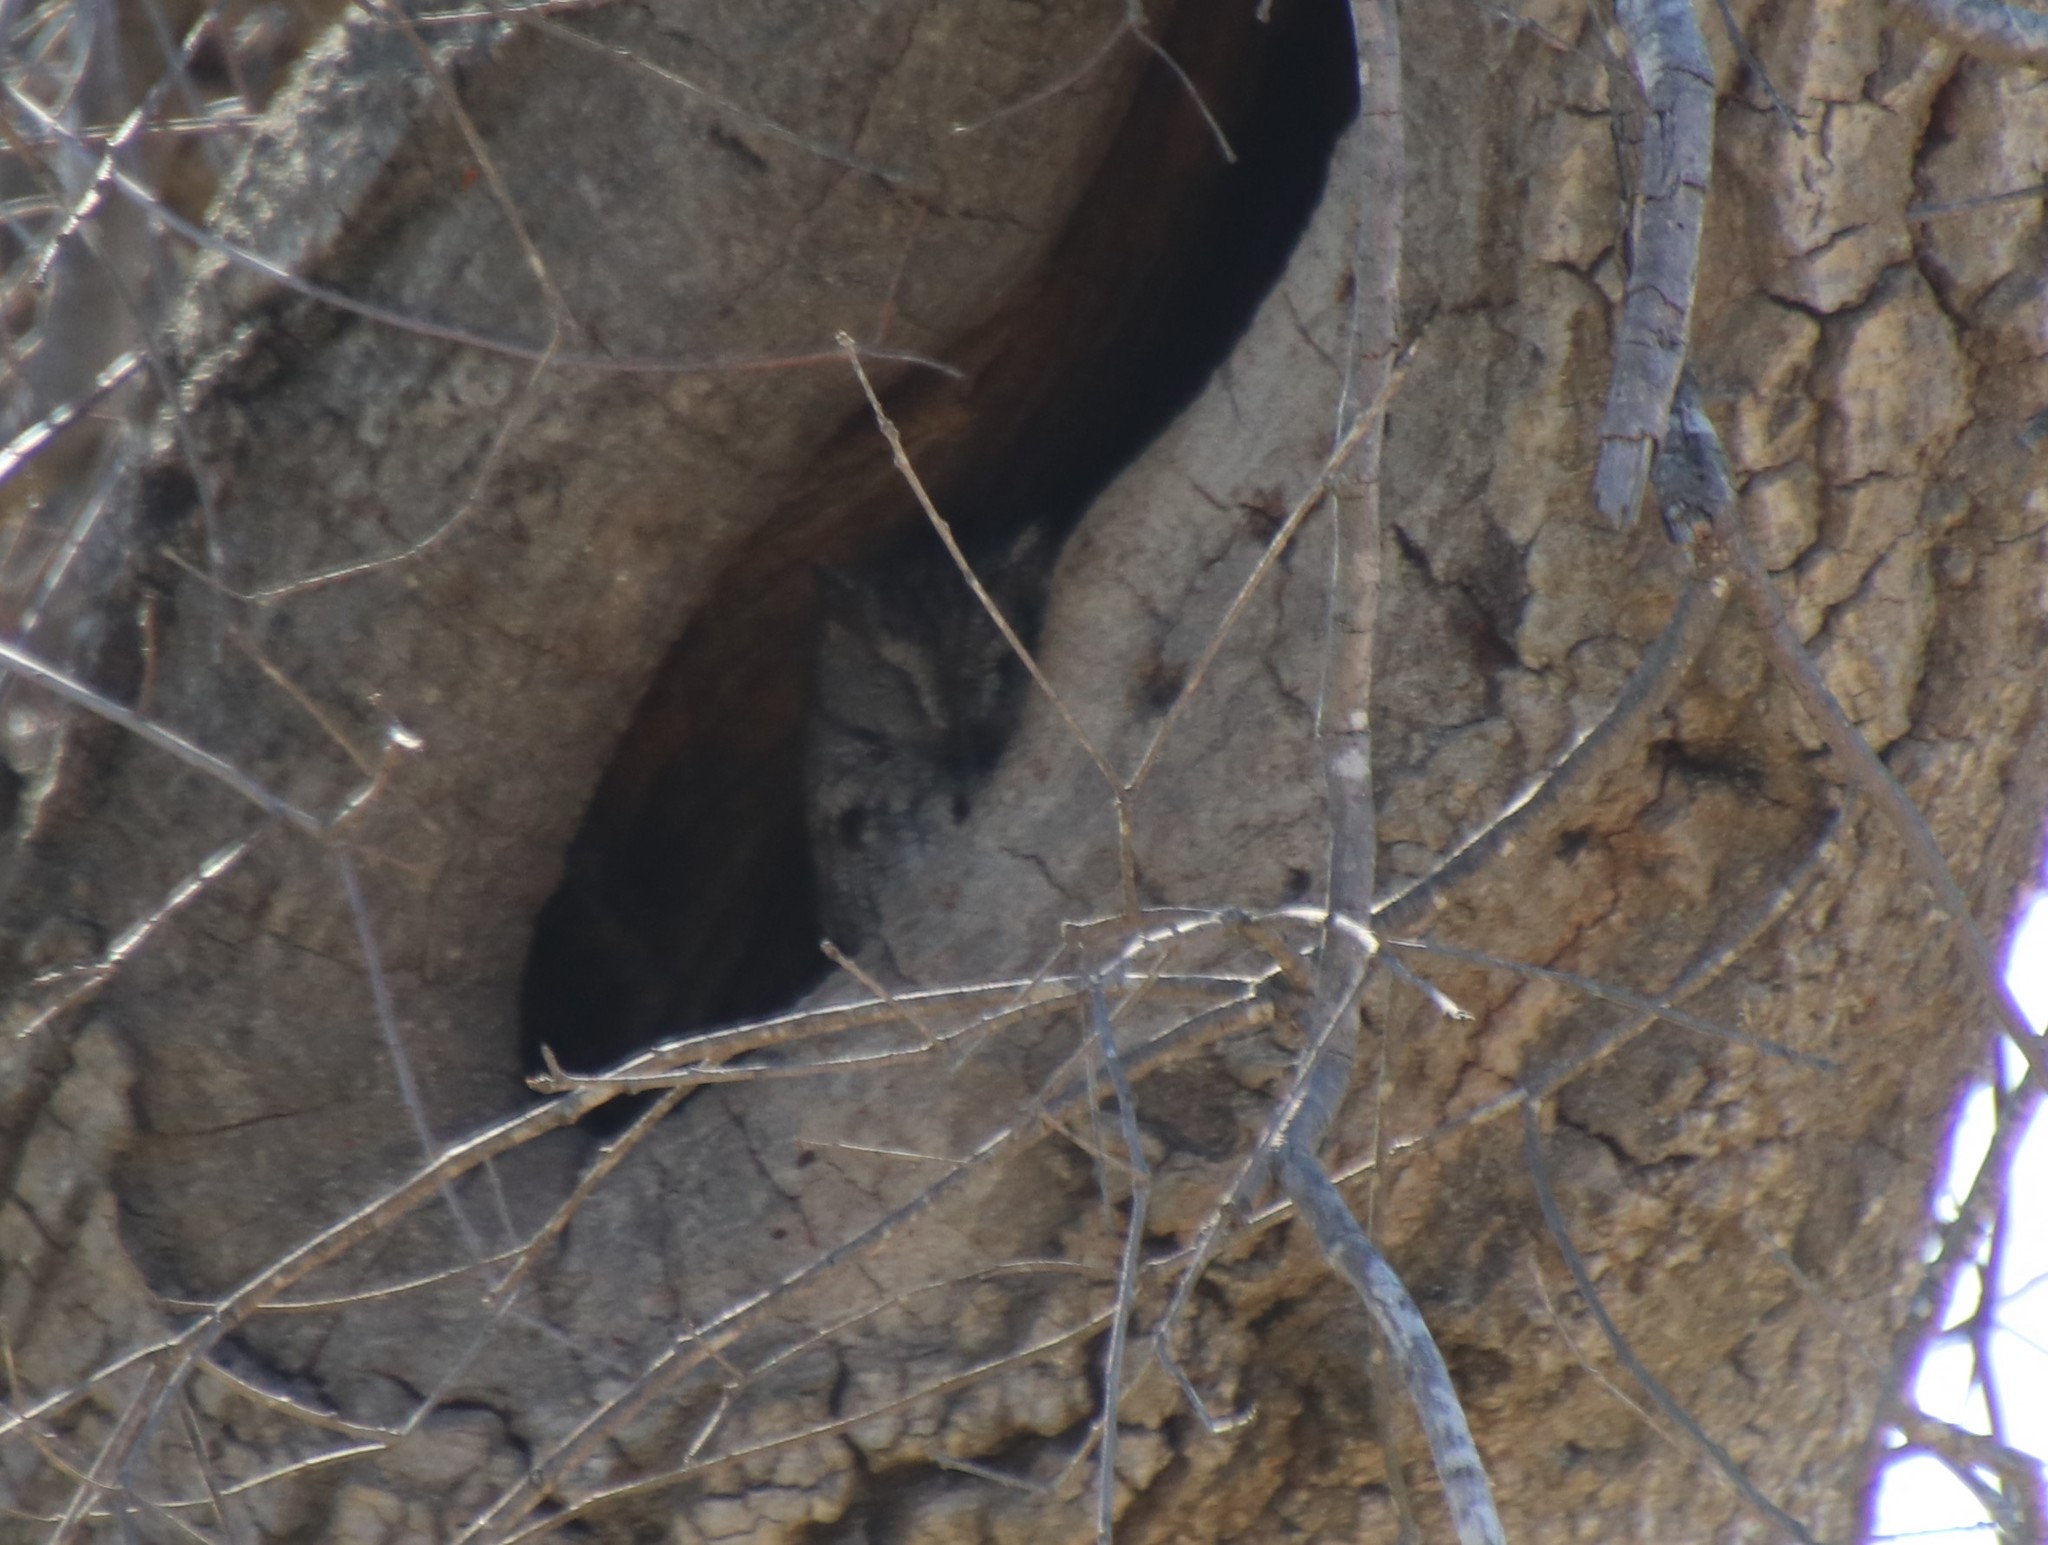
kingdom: Animalia
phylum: Chordata
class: Aves
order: Strigiformes
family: Strigidae
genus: Megascops
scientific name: Megascops kennicottii
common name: Western screech-owl
